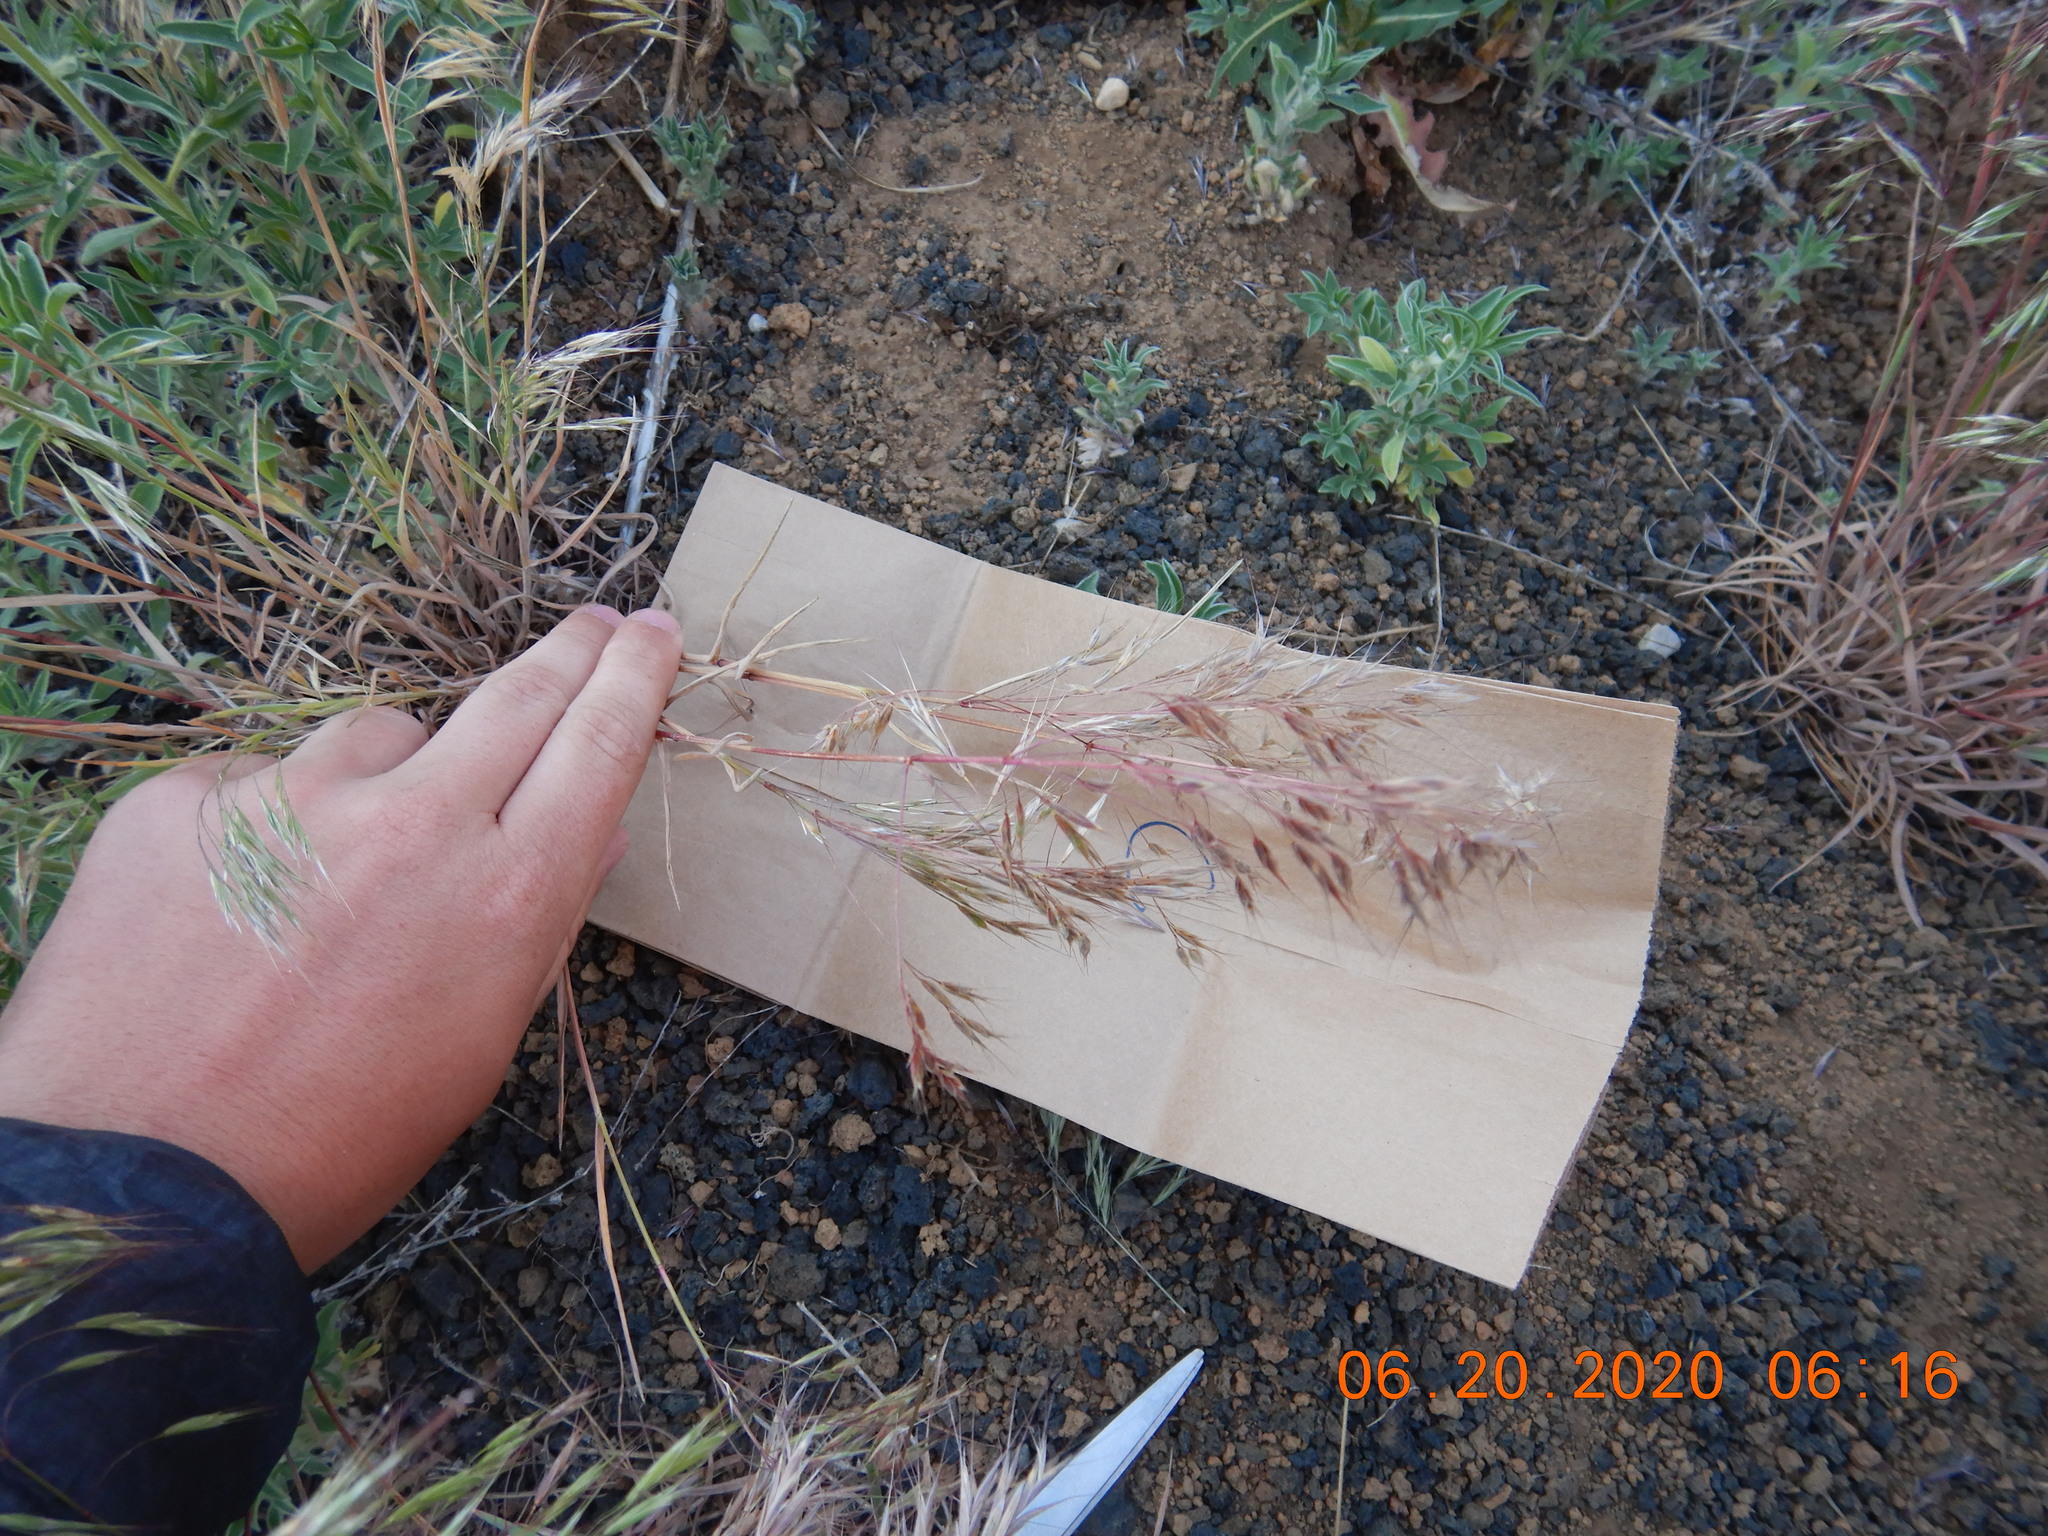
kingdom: Plantae
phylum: Tracheophyta
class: Liliopsida
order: Poales
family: Poaceae
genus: Bromus
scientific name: Bromus tectorum
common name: Cheatgrass
